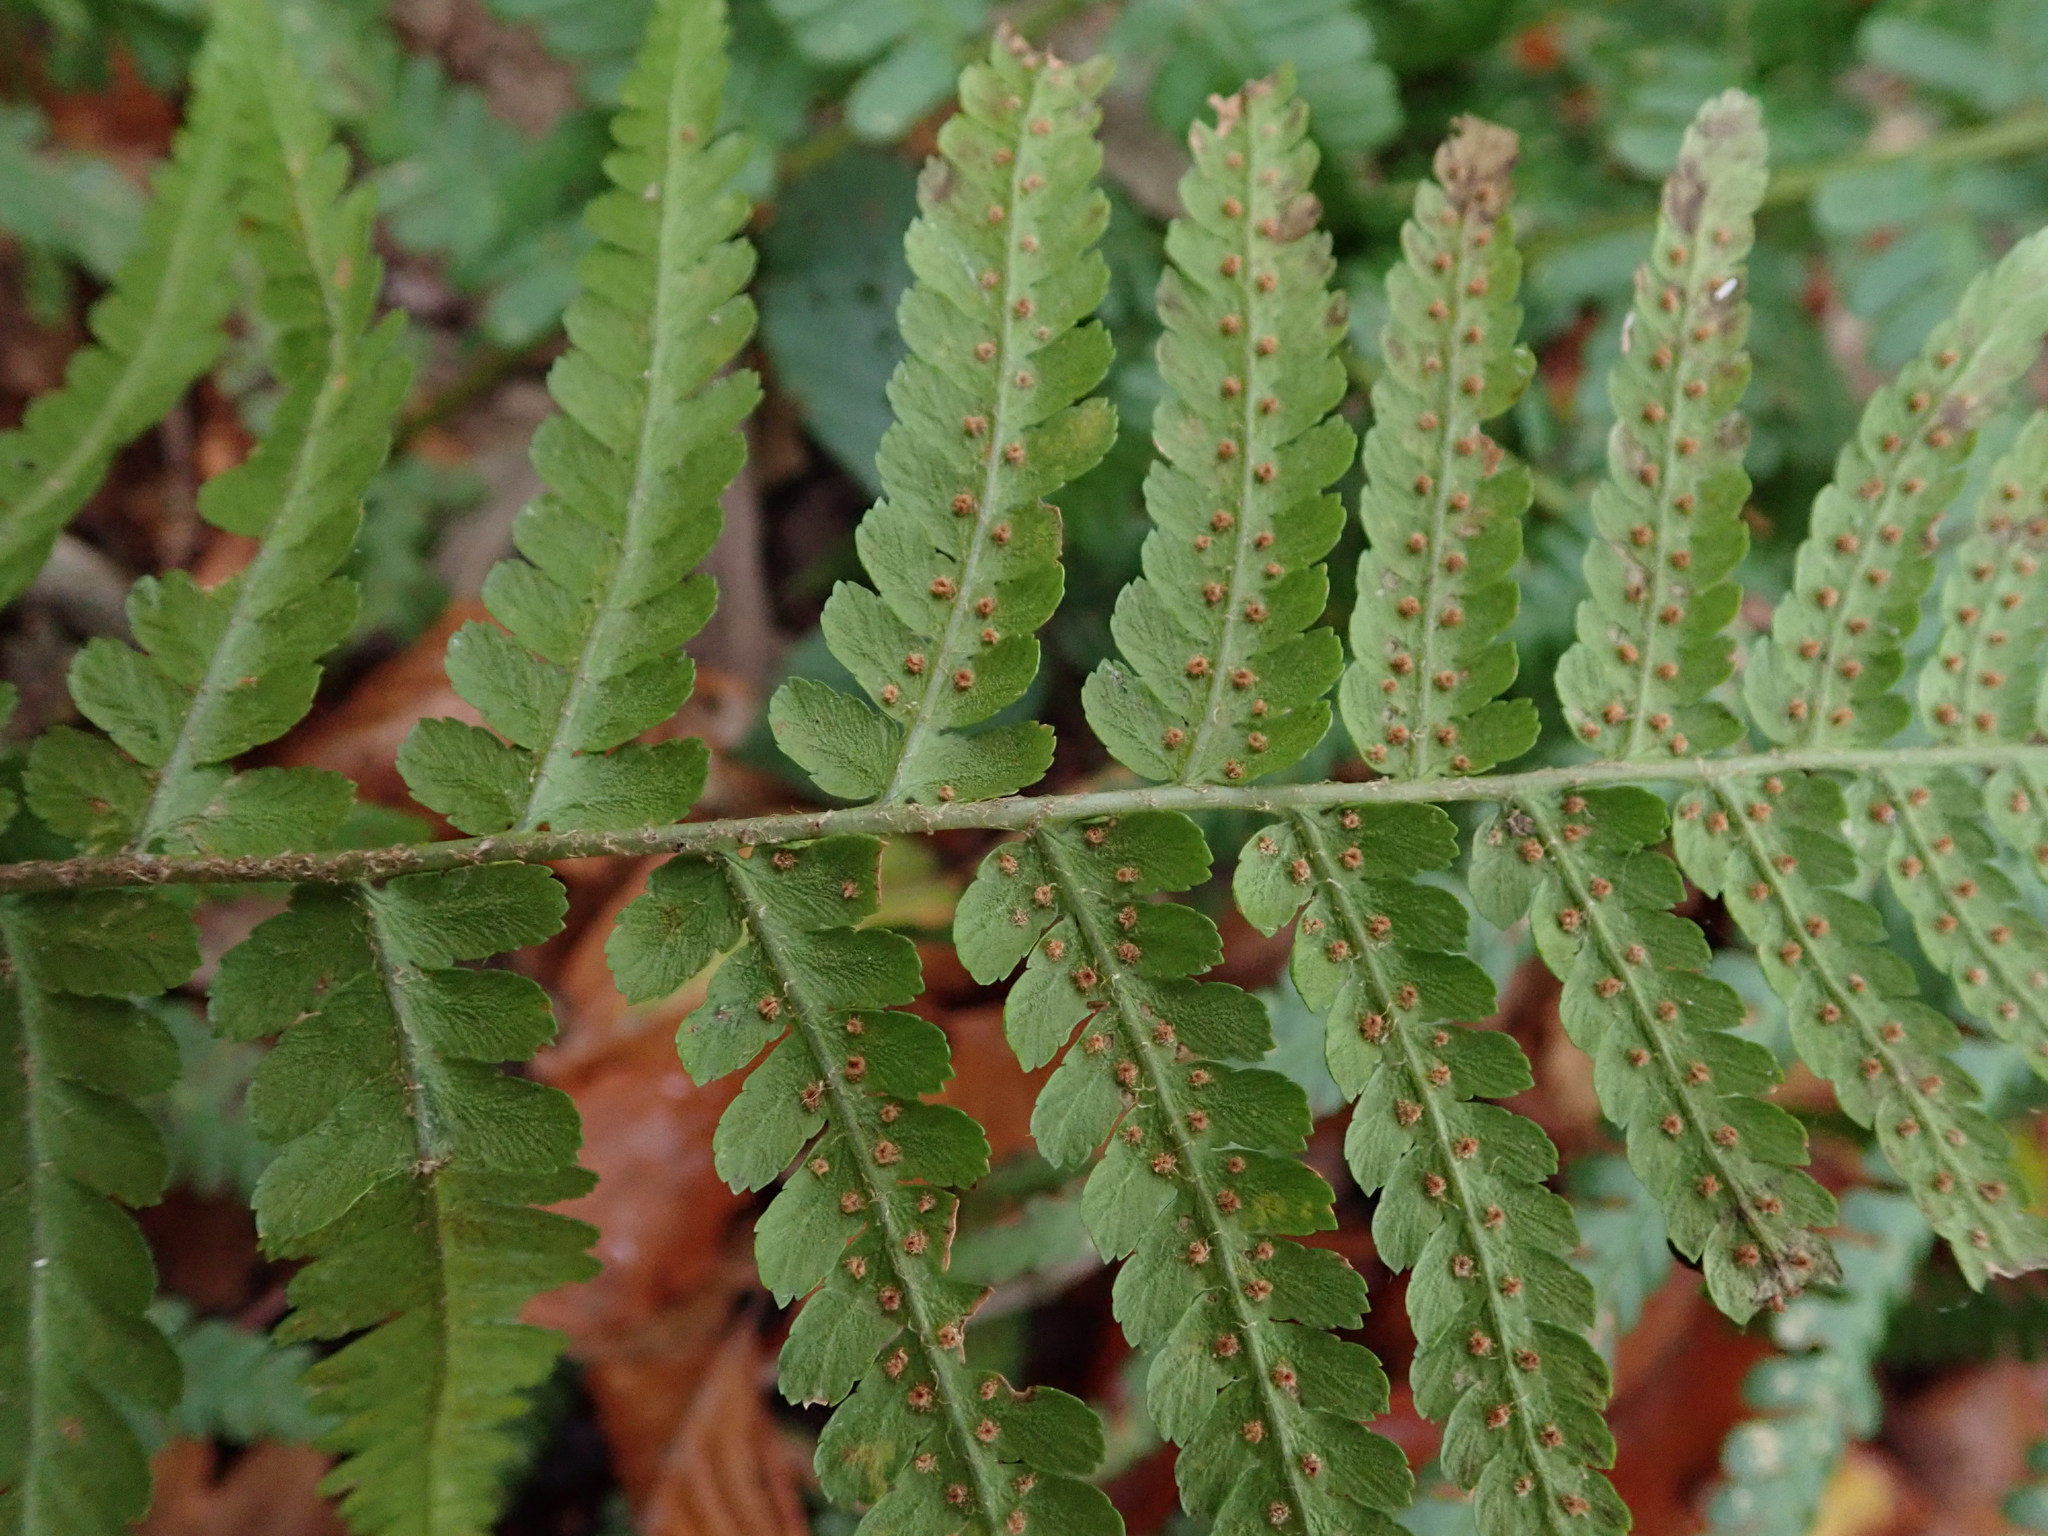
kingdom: Plantae
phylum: Tracheophyta
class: Polypodiopsida
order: Polypodiales
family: Dryopteridaceae
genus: Dryopteris
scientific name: Dryopteris filix-mas
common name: Male fern
